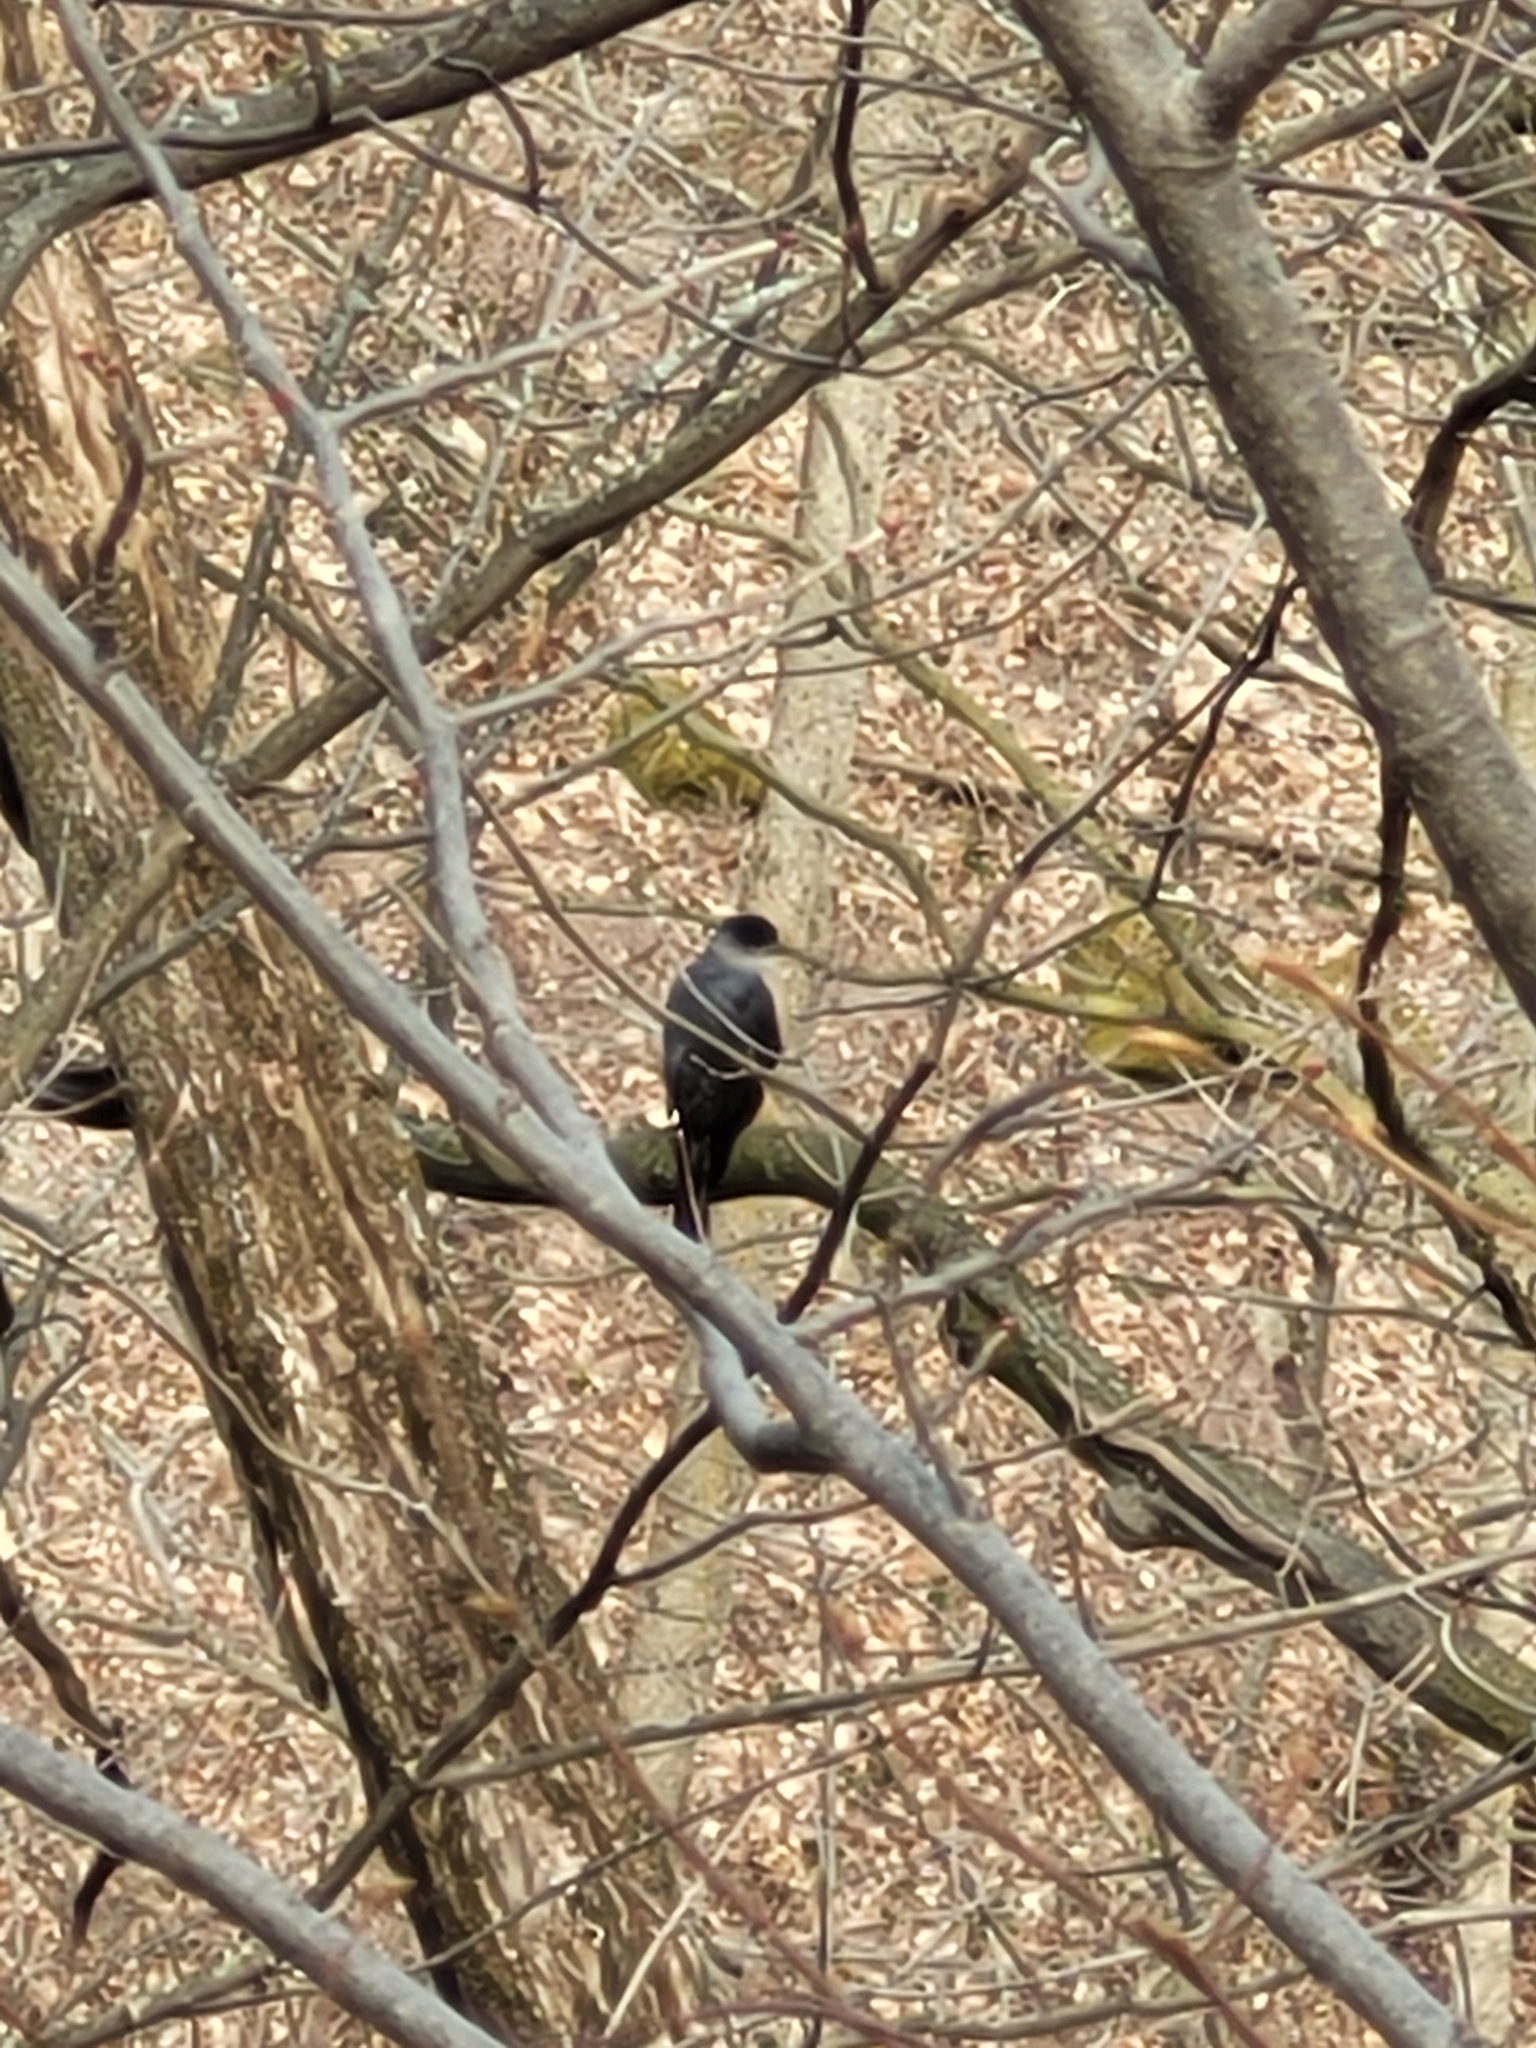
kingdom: Animalia
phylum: Chordata
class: Aves
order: Accipitriformes
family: Accipitridae
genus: Accipiter
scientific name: Accipiter cooperii
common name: Cooper's hawk
